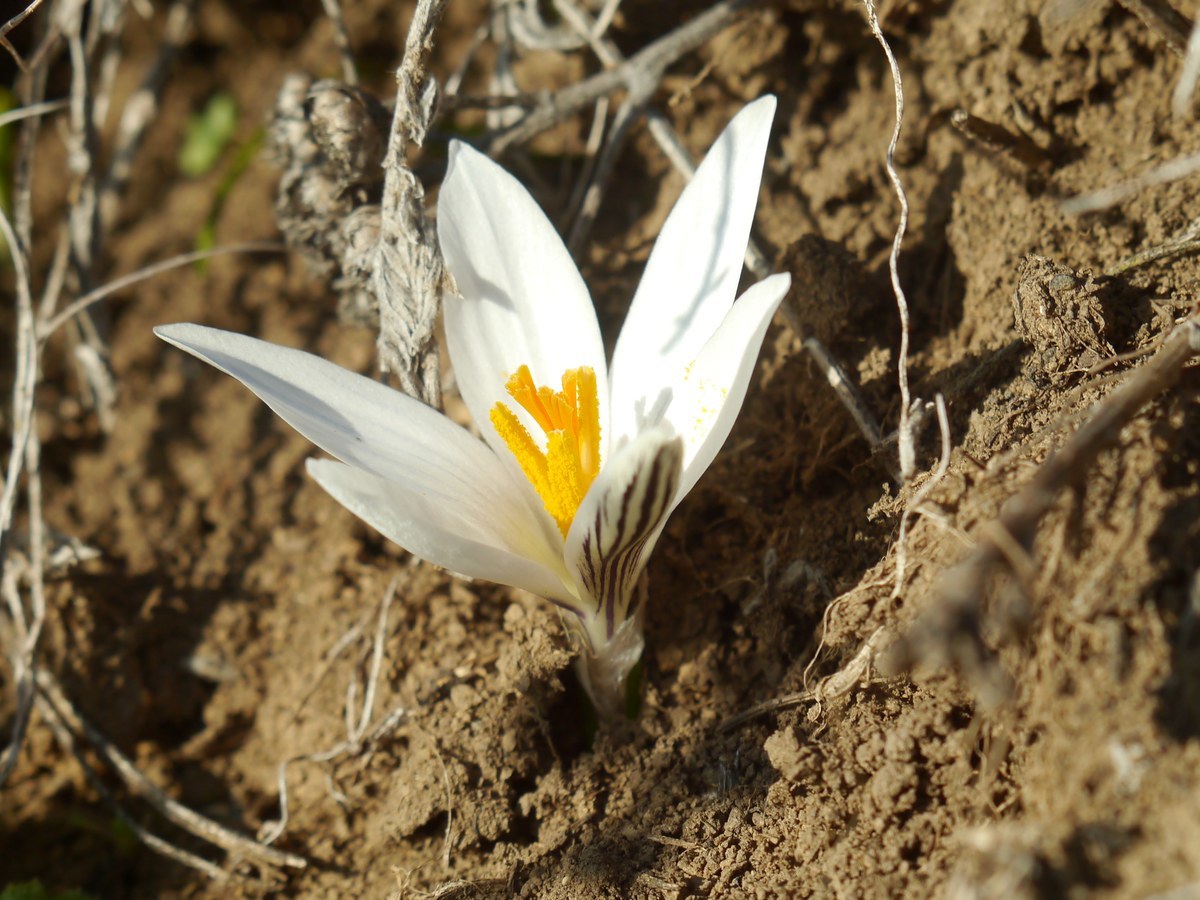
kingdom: Plantae
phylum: Tracheophyta
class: Liliopsida
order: Asparagales
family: Iridaceae
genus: Crocus
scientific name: Crocus reticulatus
